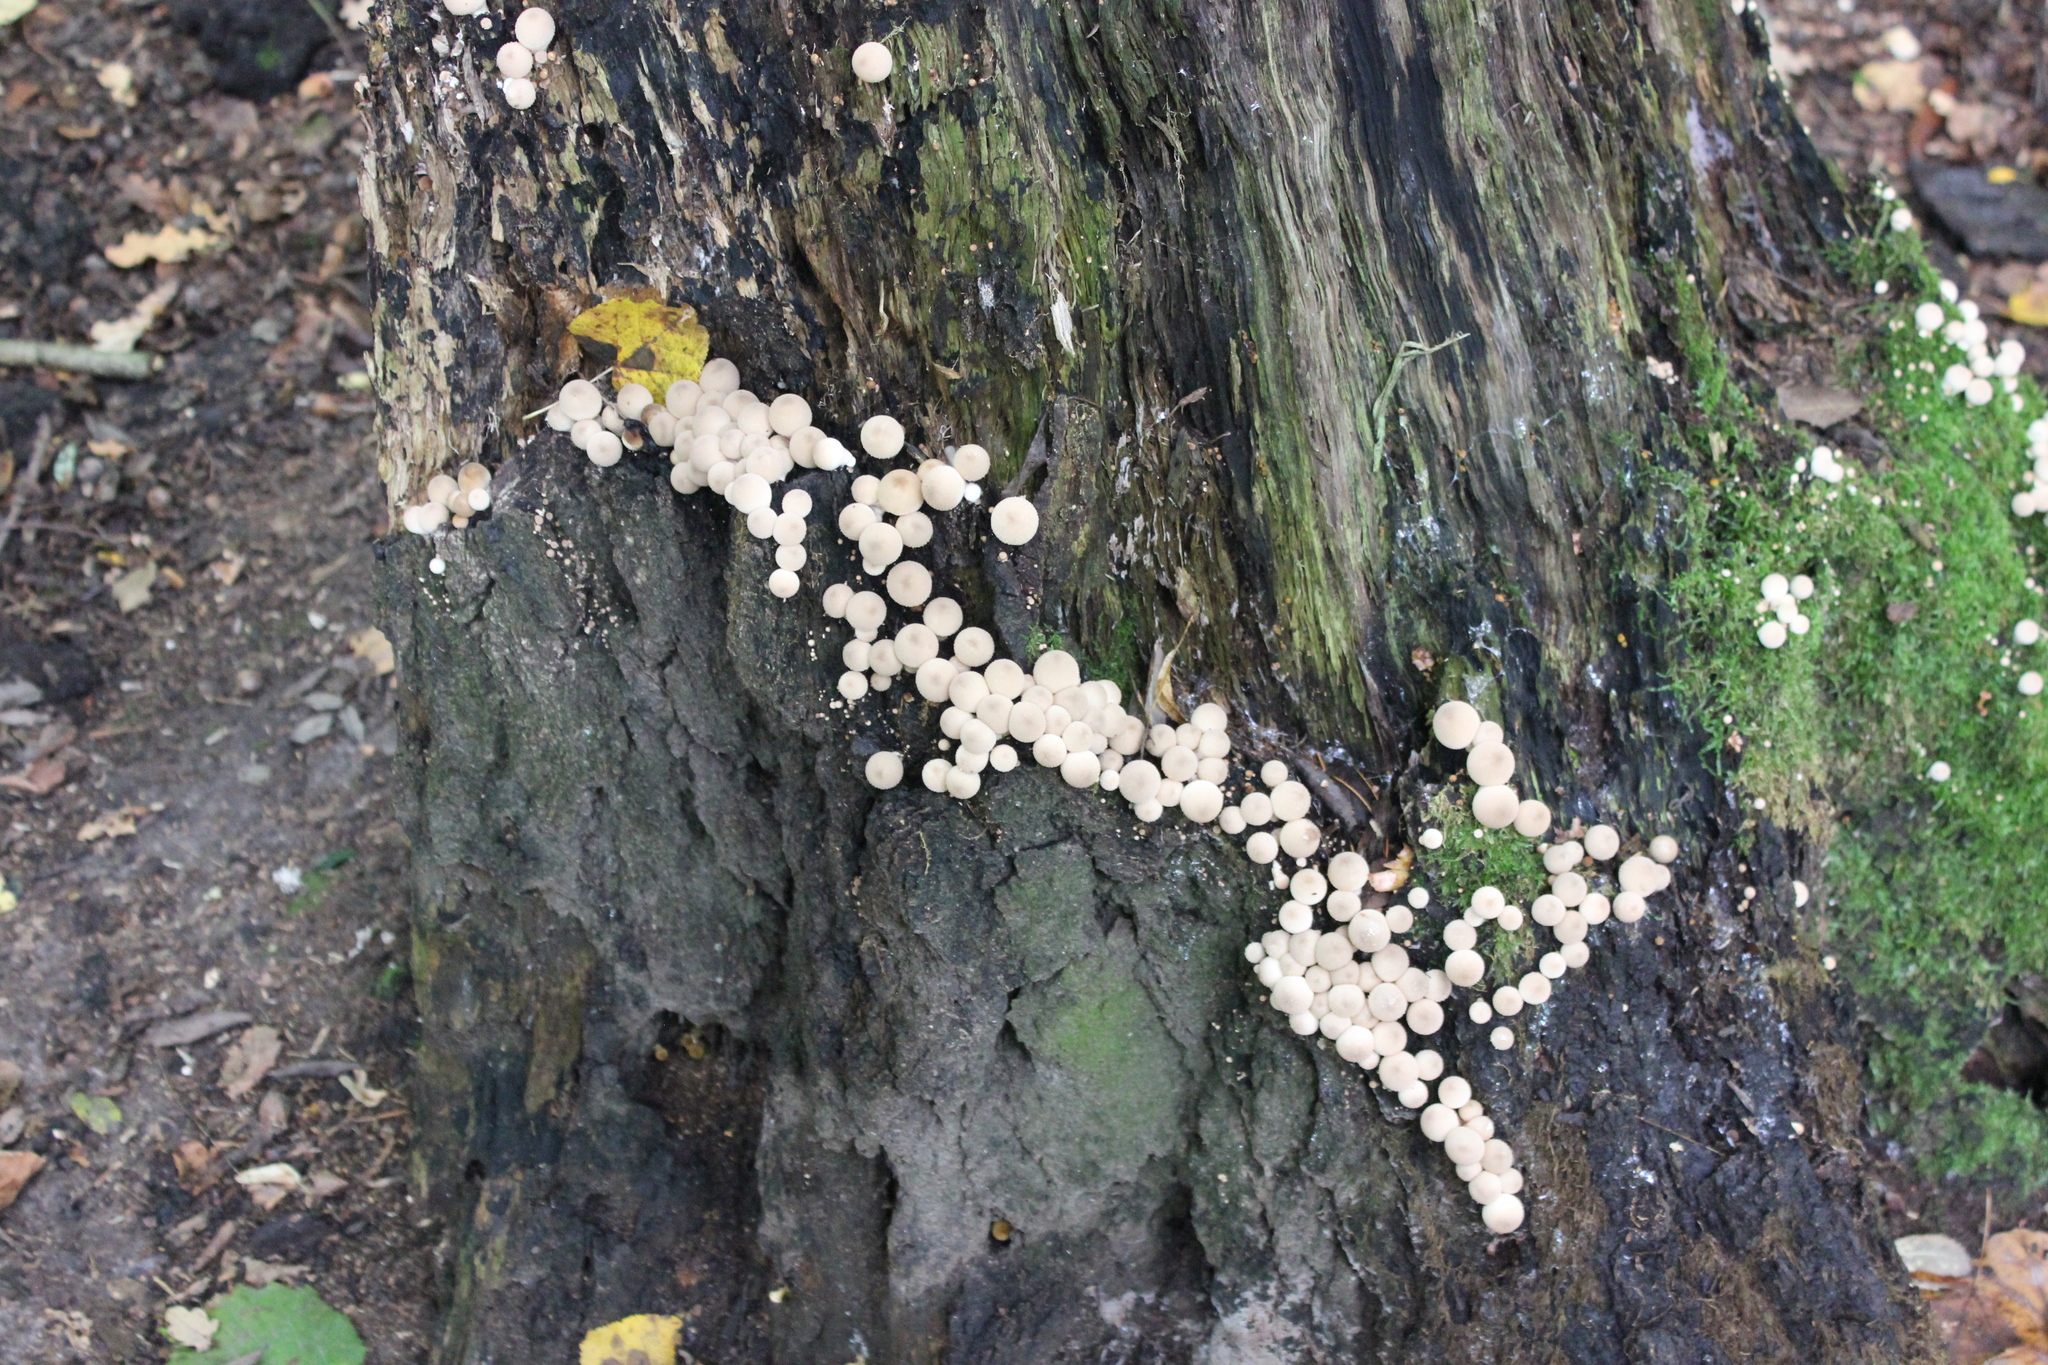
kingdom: Fungi
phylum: Basidiomycota
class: Agaricomycetes
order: Agaricales
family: Lycoperdaceae
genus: Apioperdon
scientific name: Apioperdon pyriforme
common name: Pear-shaped puffball
